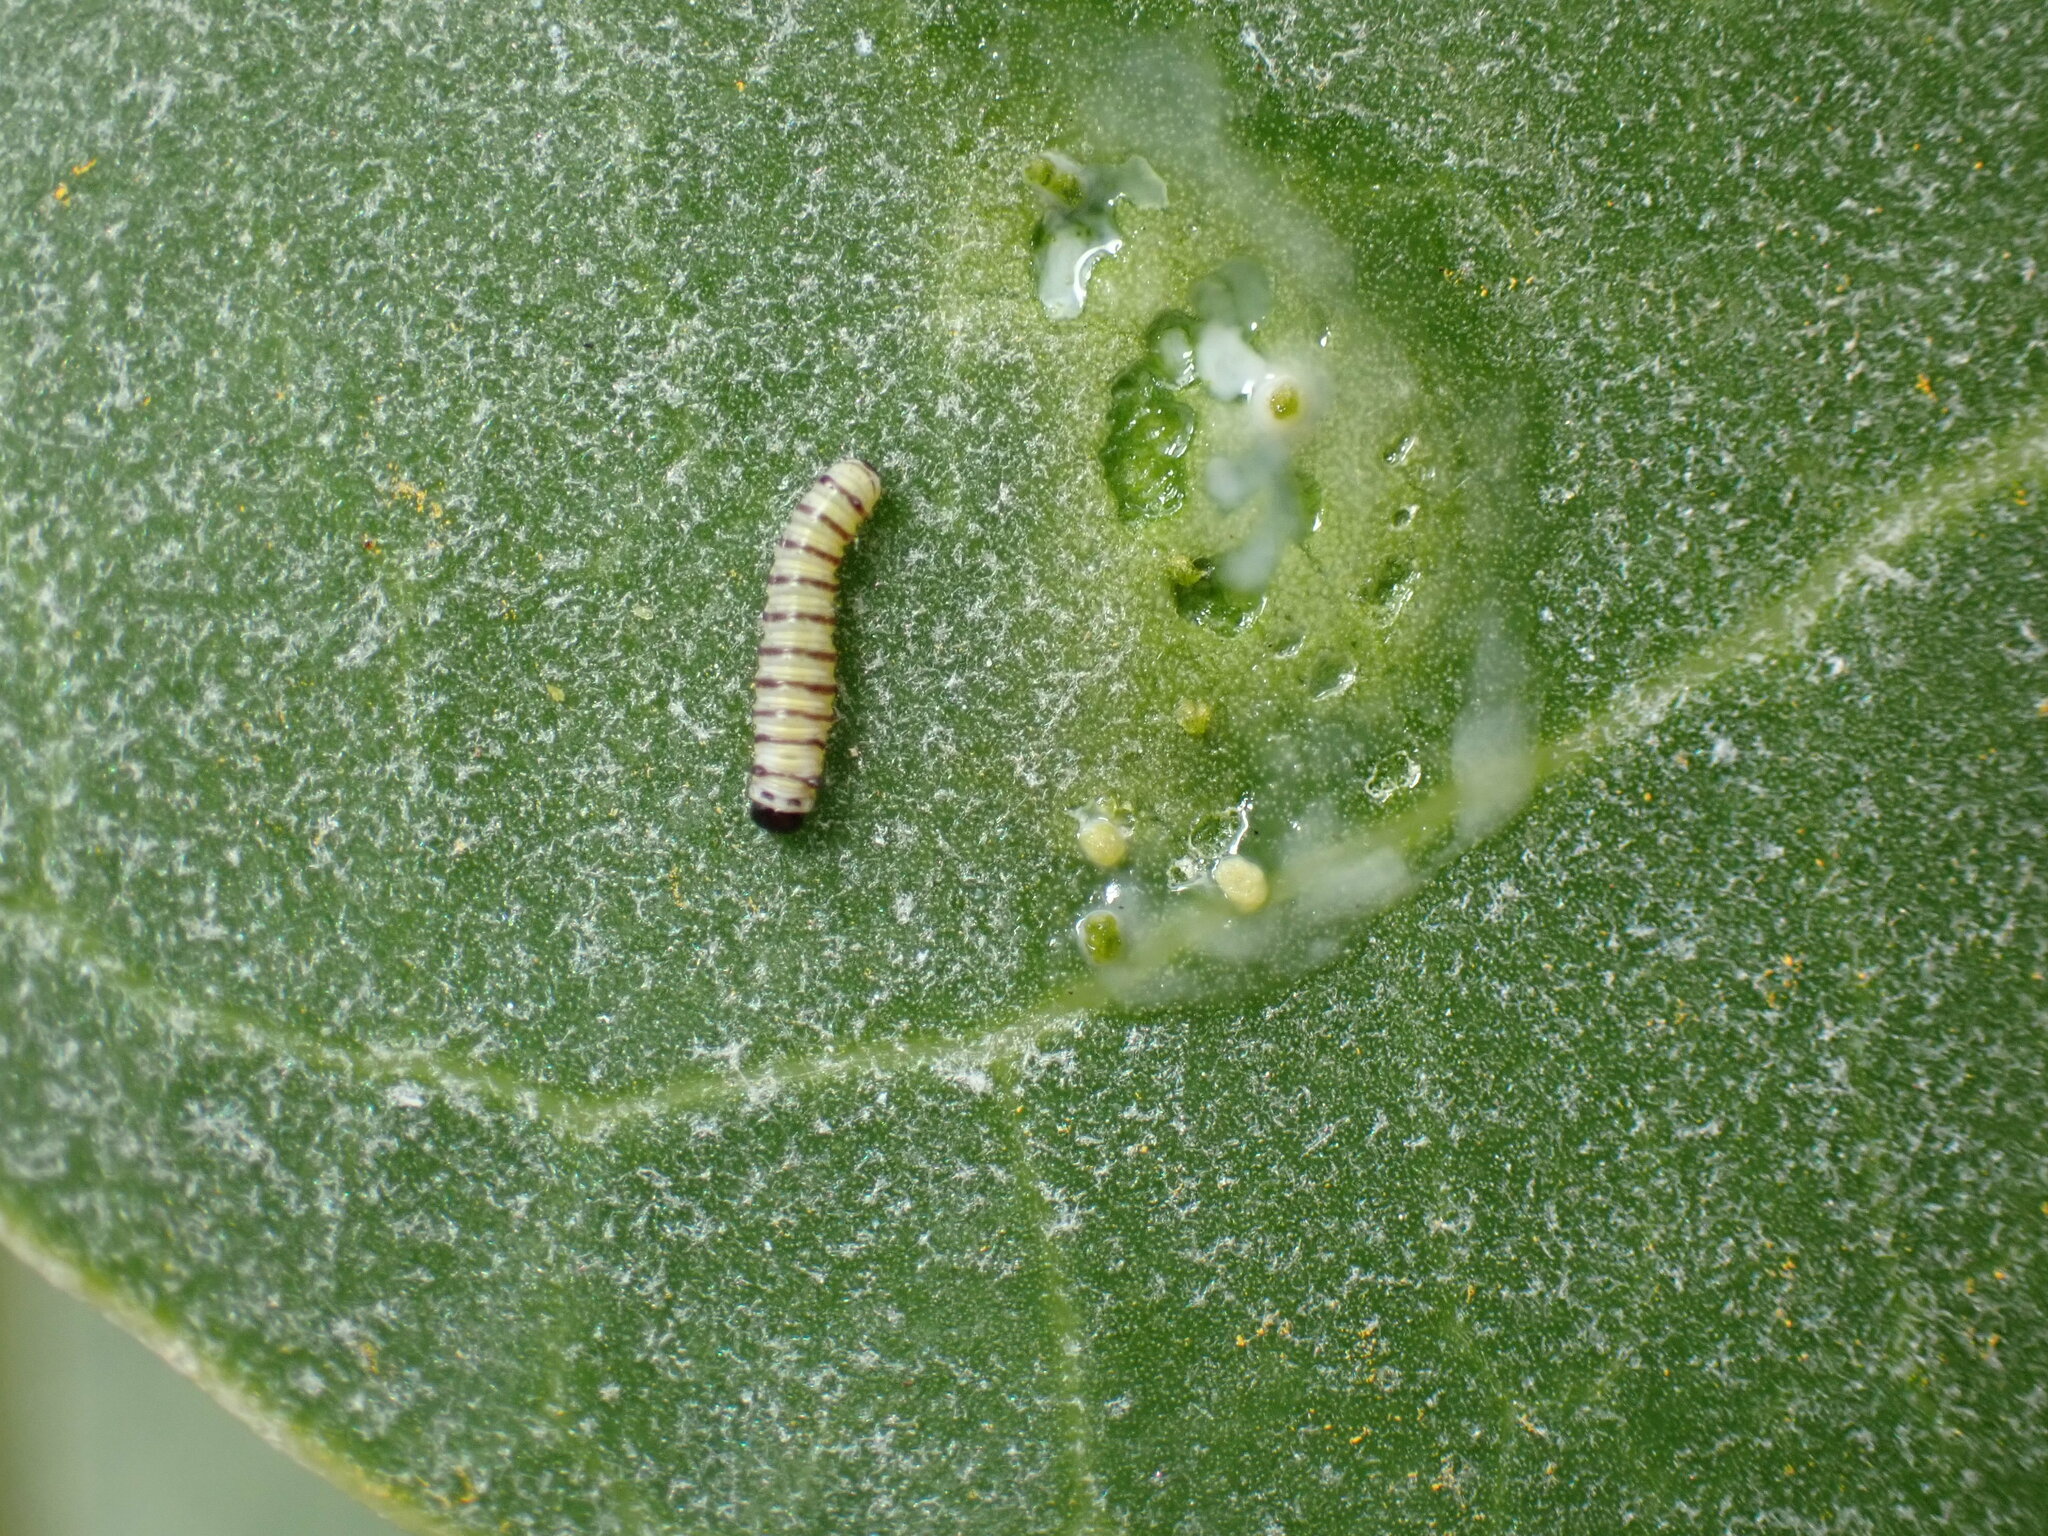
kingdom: Animalia
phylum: Arthropoda
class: Insecta
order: Lepidoptera
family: Nymphalidae
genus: Danaus
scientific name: Danaus plexippus
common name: Monarch
